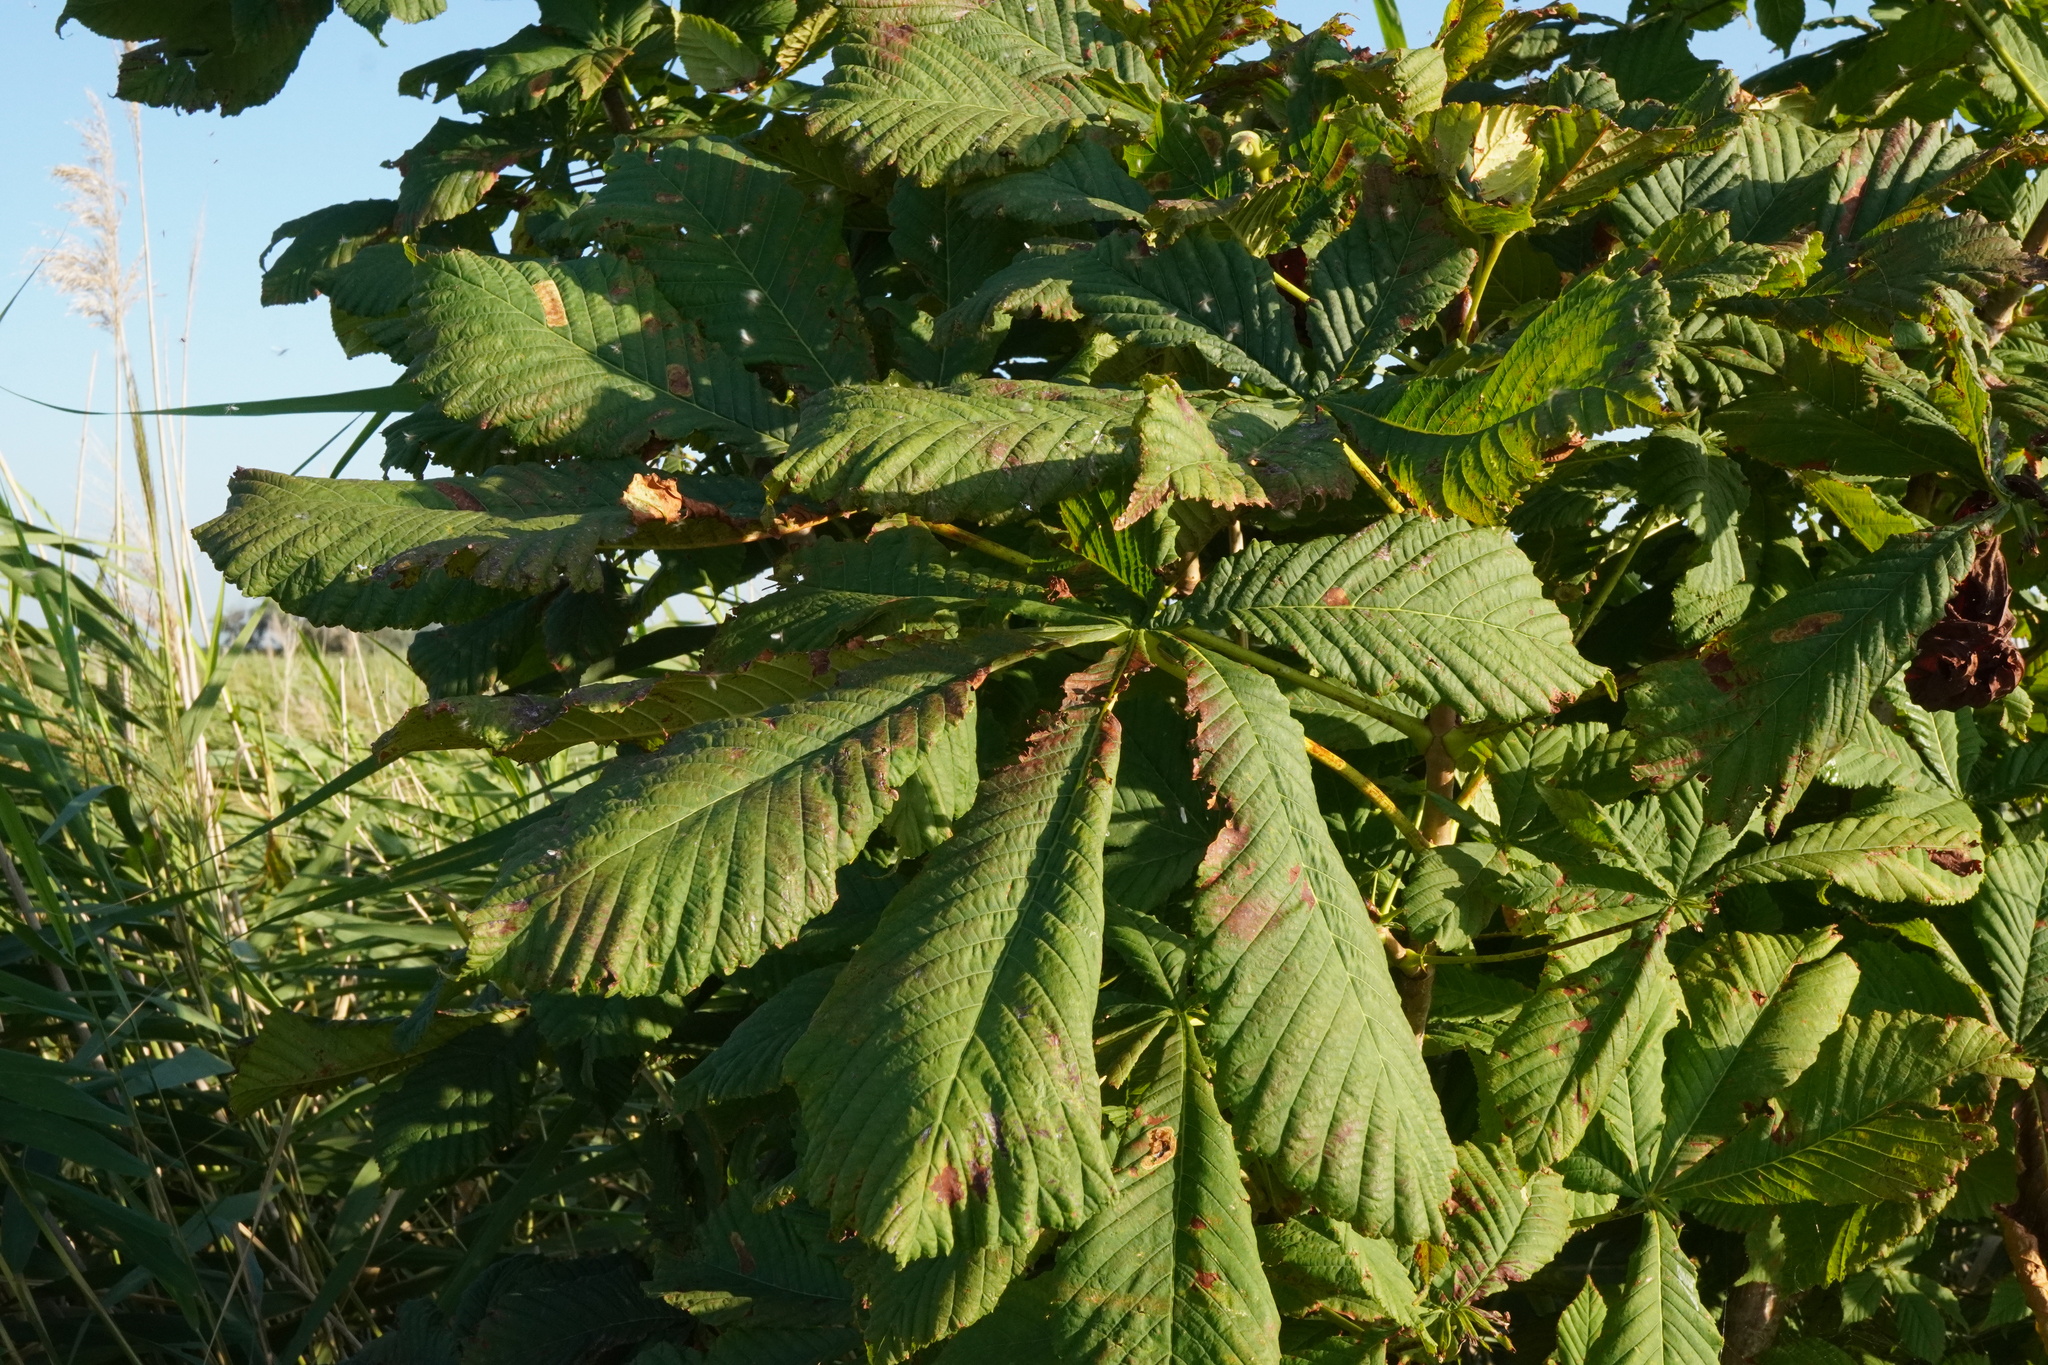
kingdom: Plantae
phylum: Tracheophyta
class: Magnoliopsida
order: Sapindales
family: Sapindaceae
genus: Aesculus
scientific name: Aesculus hippocastanum
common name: Horse-chestnut
